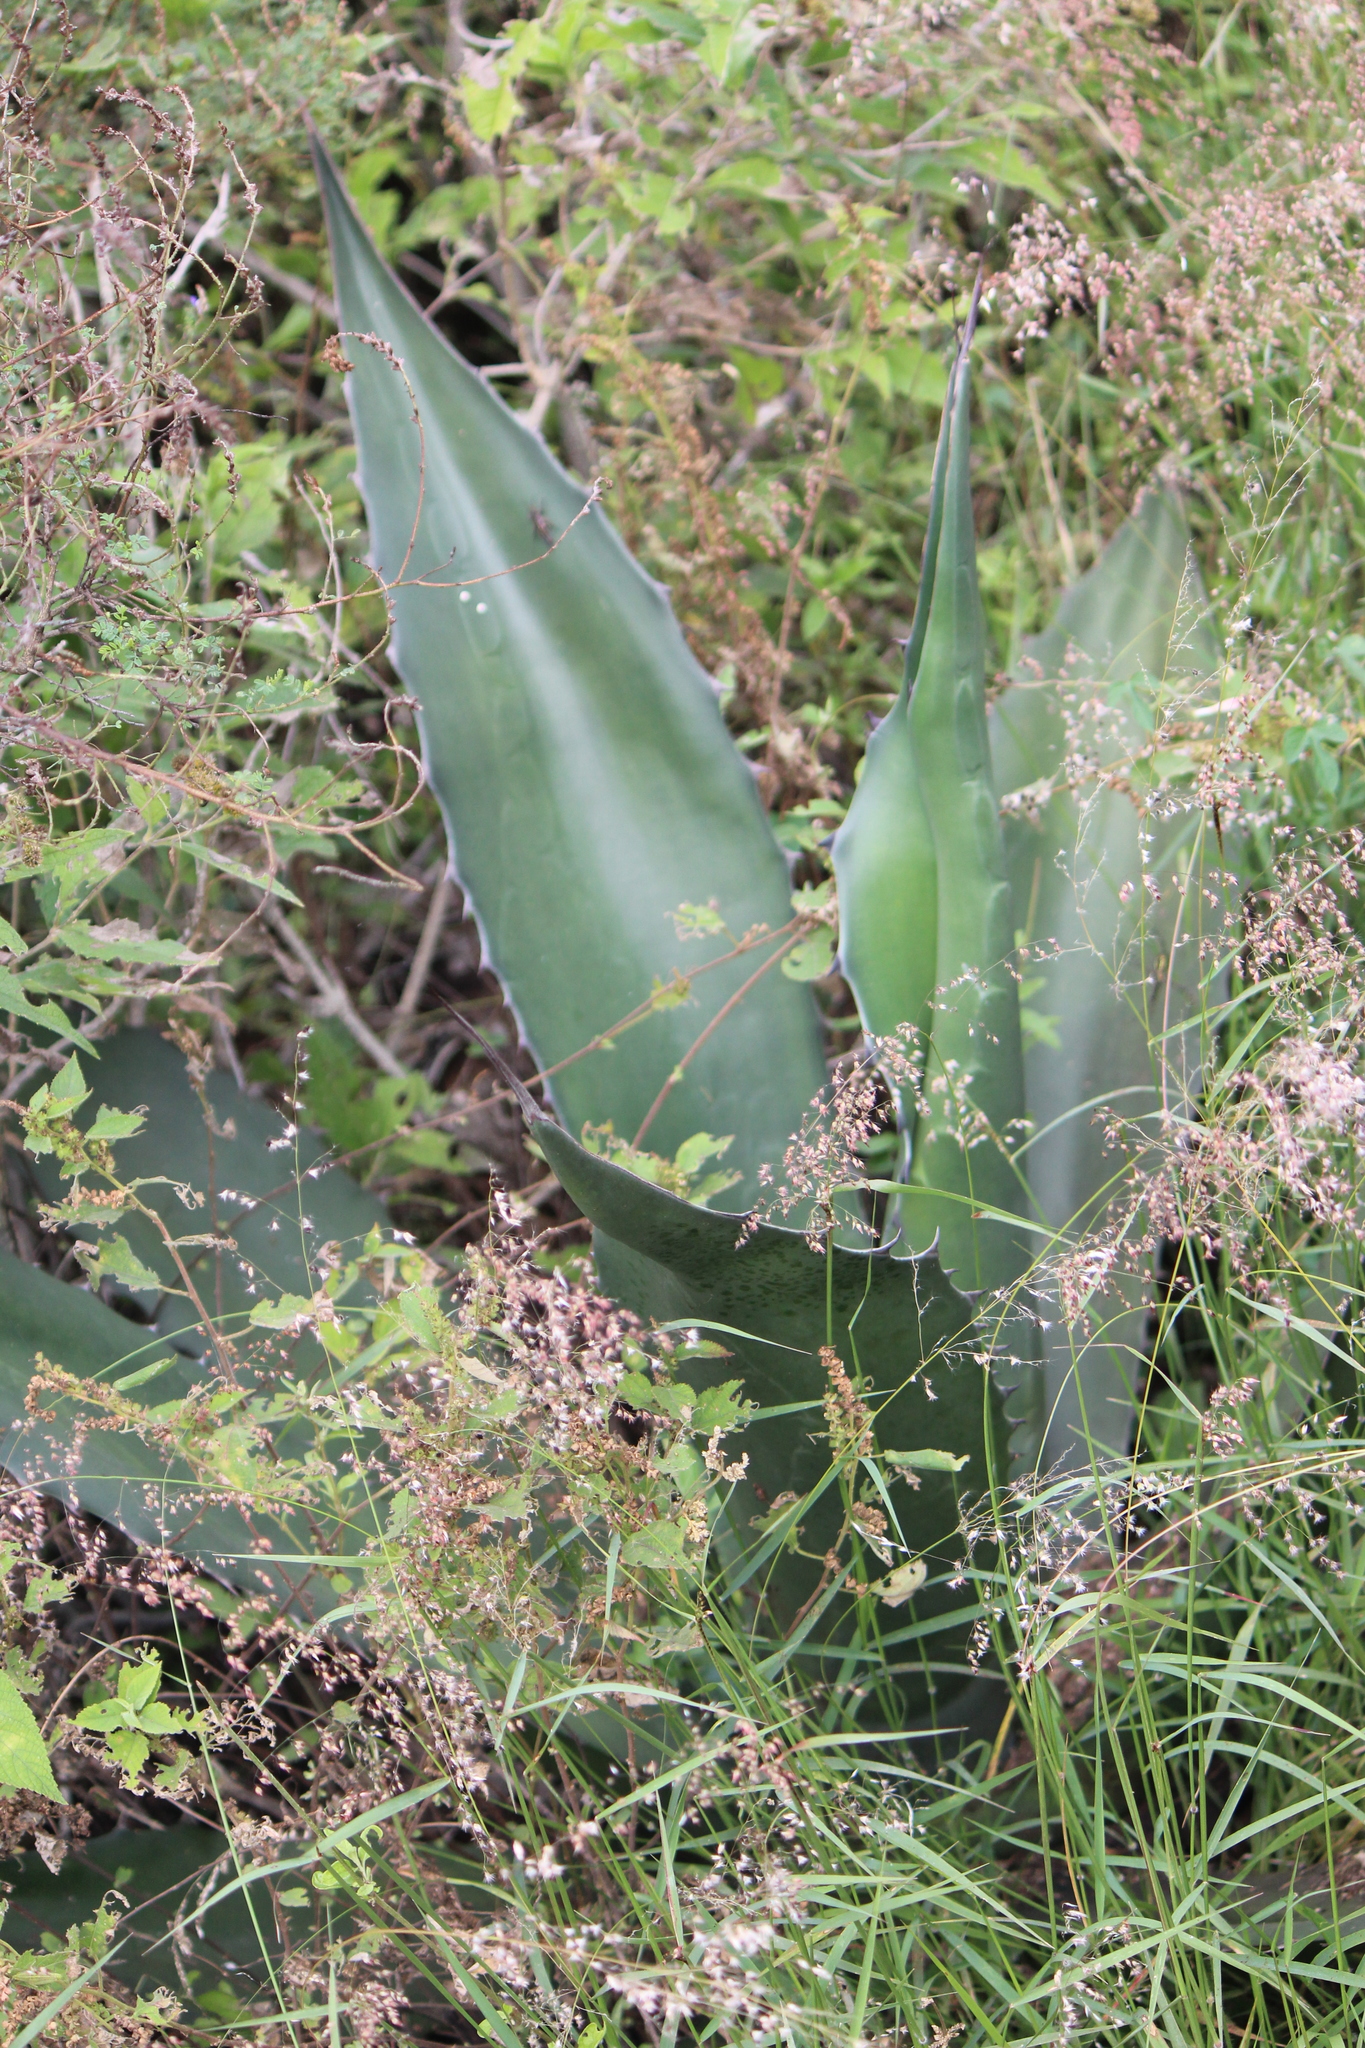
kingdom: Animalia
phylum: Arthropoda
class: Insecta
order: Lepidoptera
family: Hesperiidae
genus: Aegiale
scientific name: Aegiale hesperiaris
